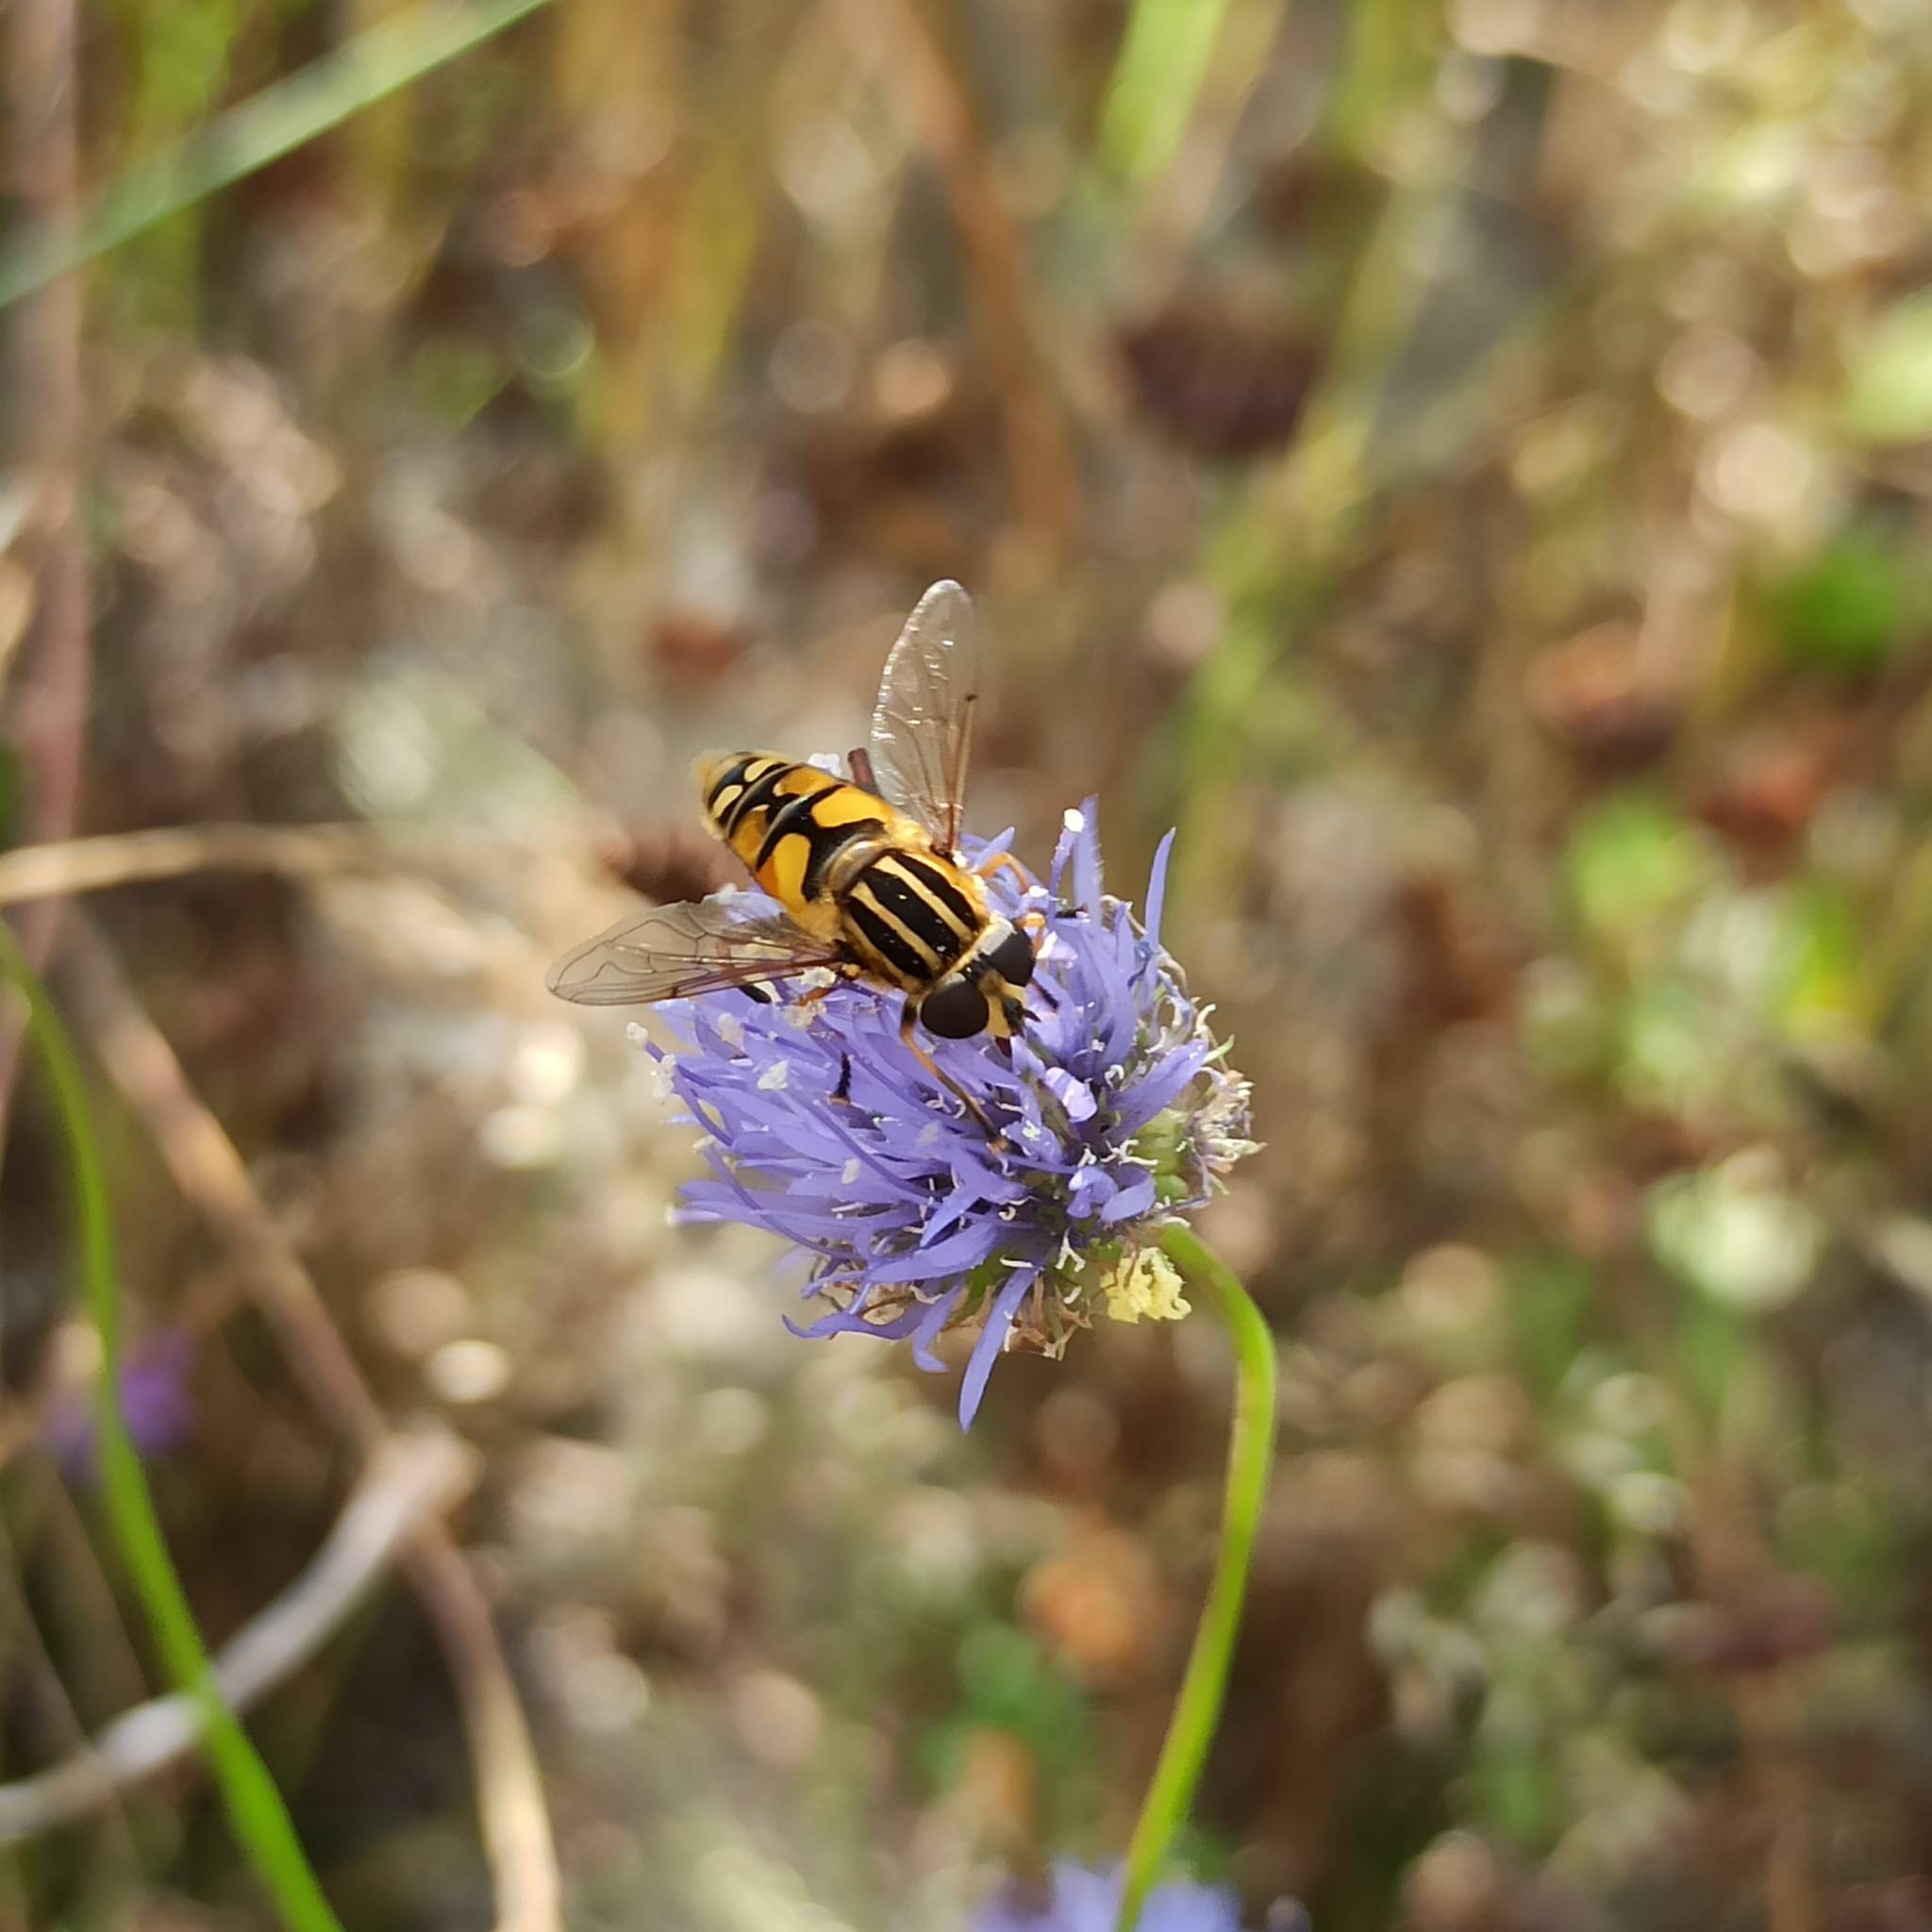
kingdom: Animalia
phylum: Arthropoda
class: Insecta
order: Diptera
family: Syrphidae
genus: Helophilus
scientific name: Helophilus trivittatus
